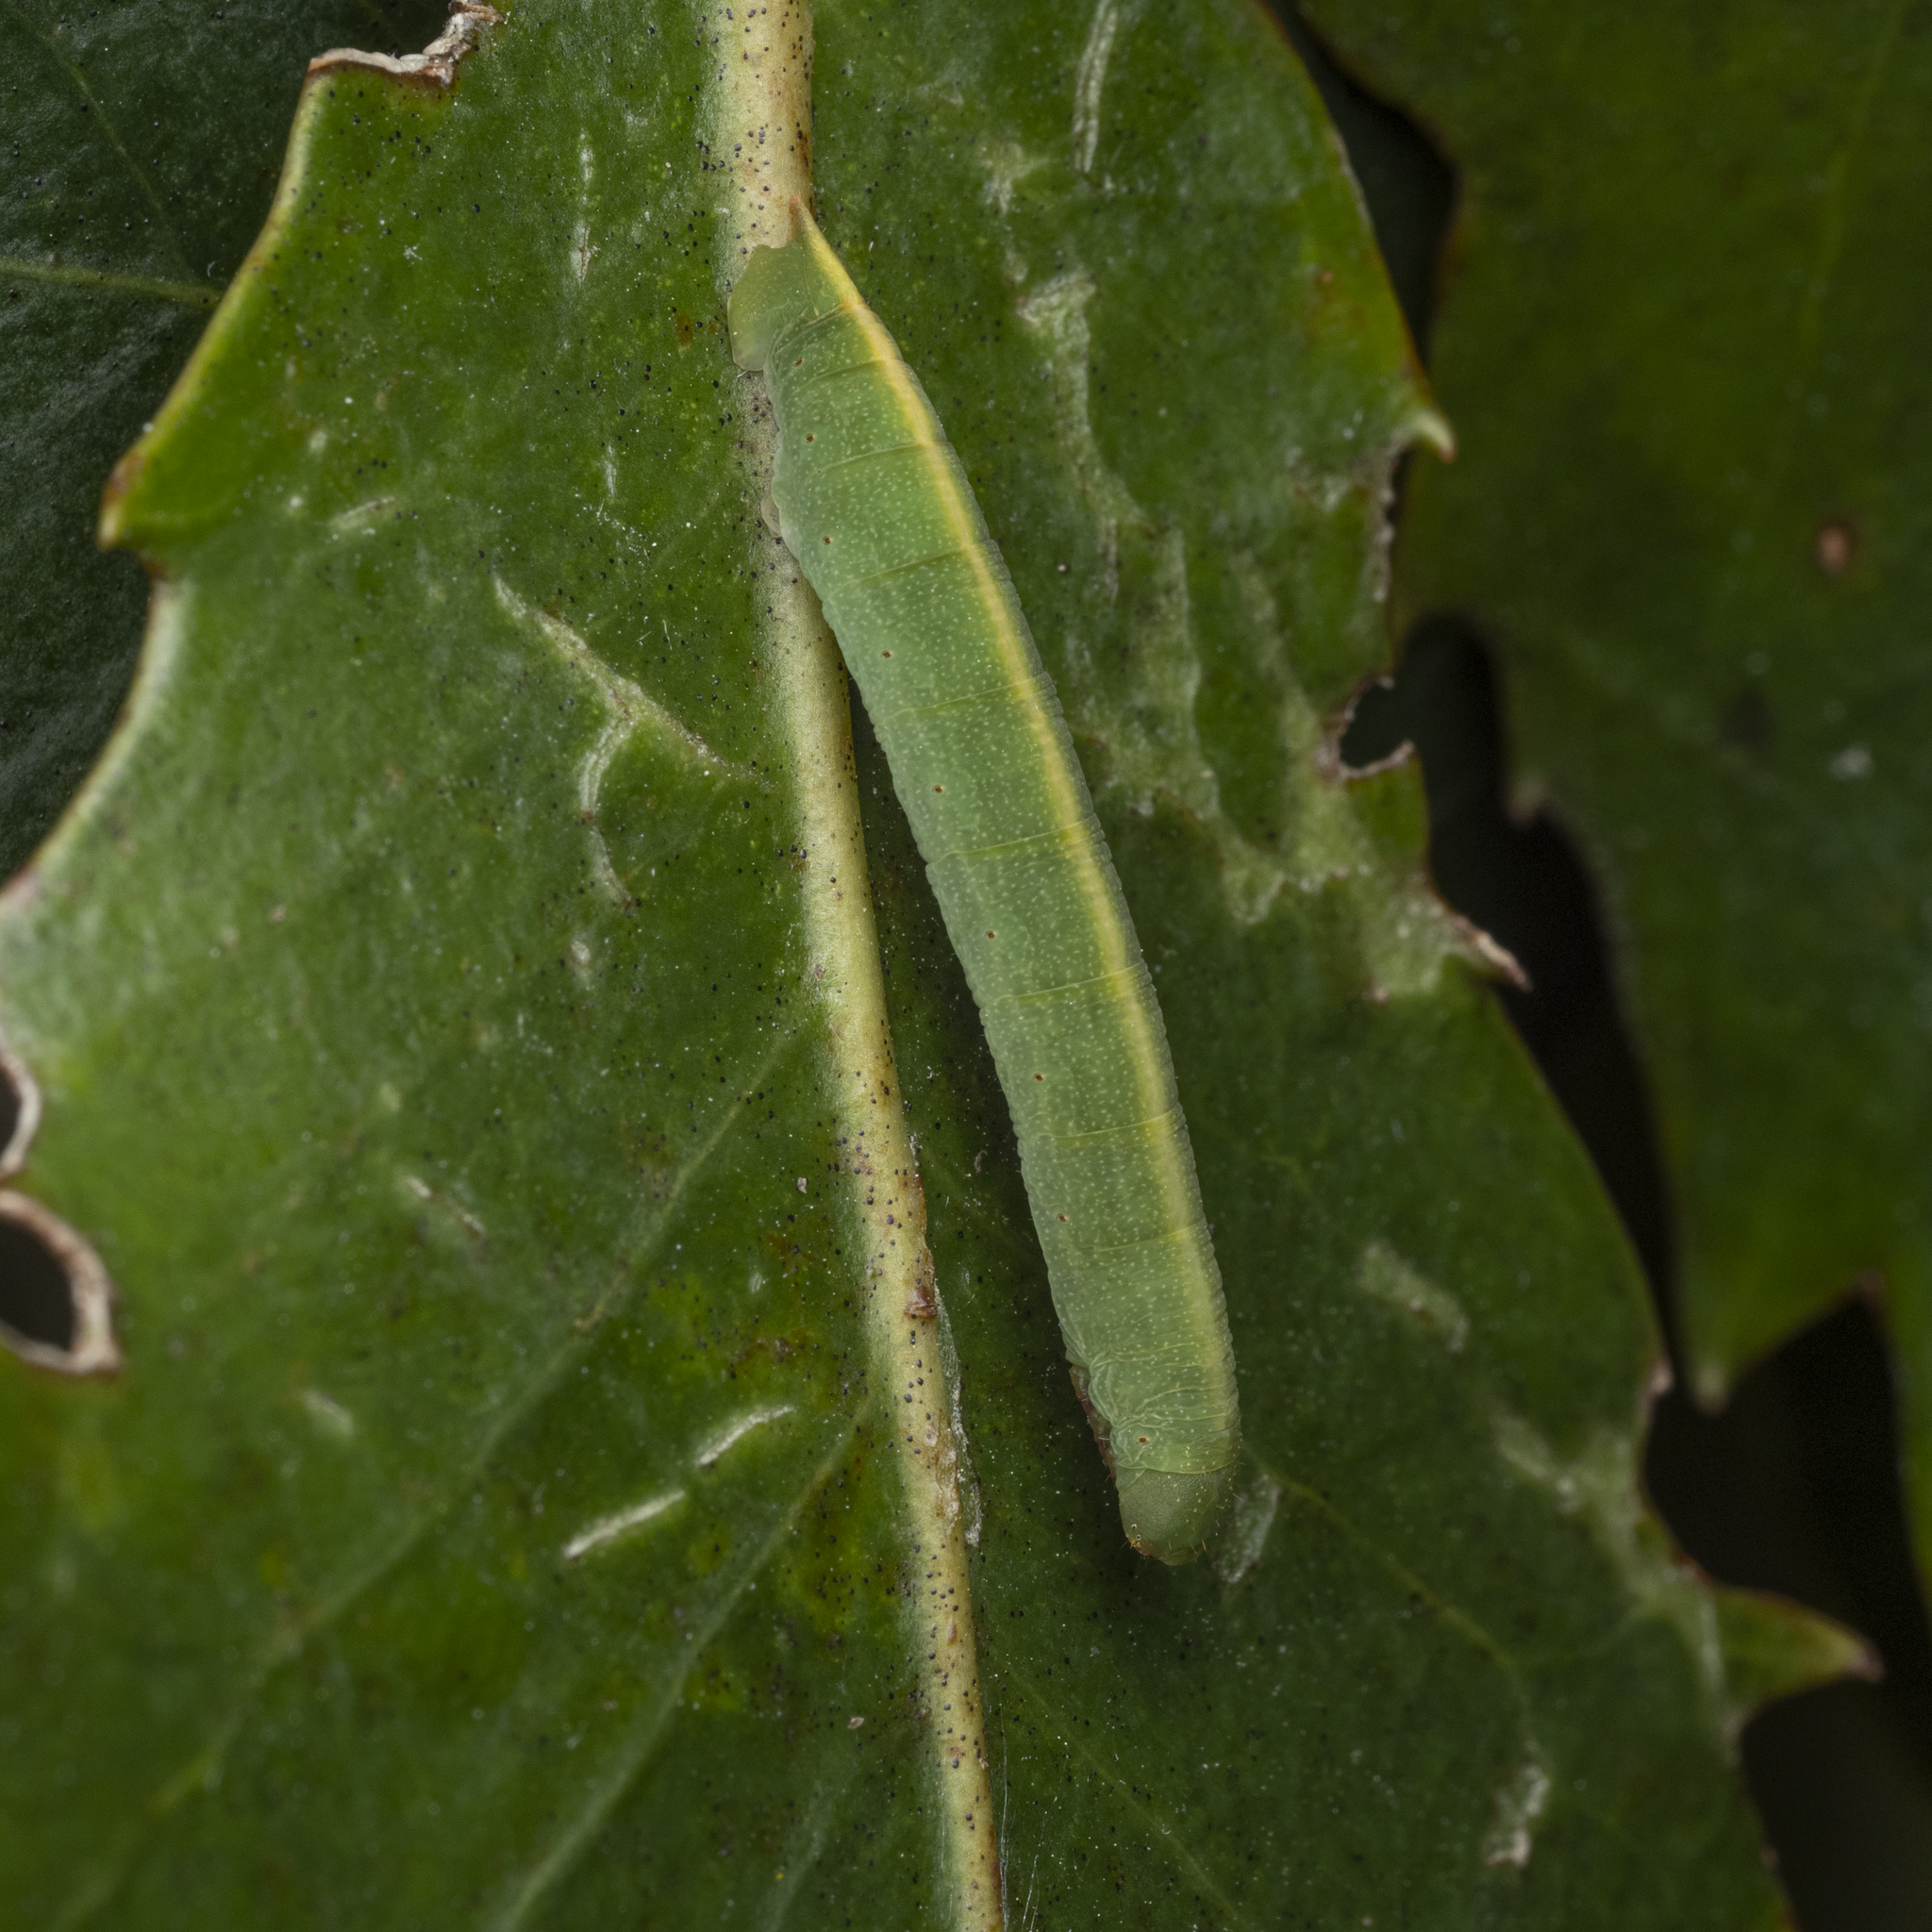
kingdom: Animalia
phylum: Arthropoda
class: Insecta
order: Lepidoptera
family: Geometridae
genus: Xyridacma
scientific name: Xyridacma alectoraria
